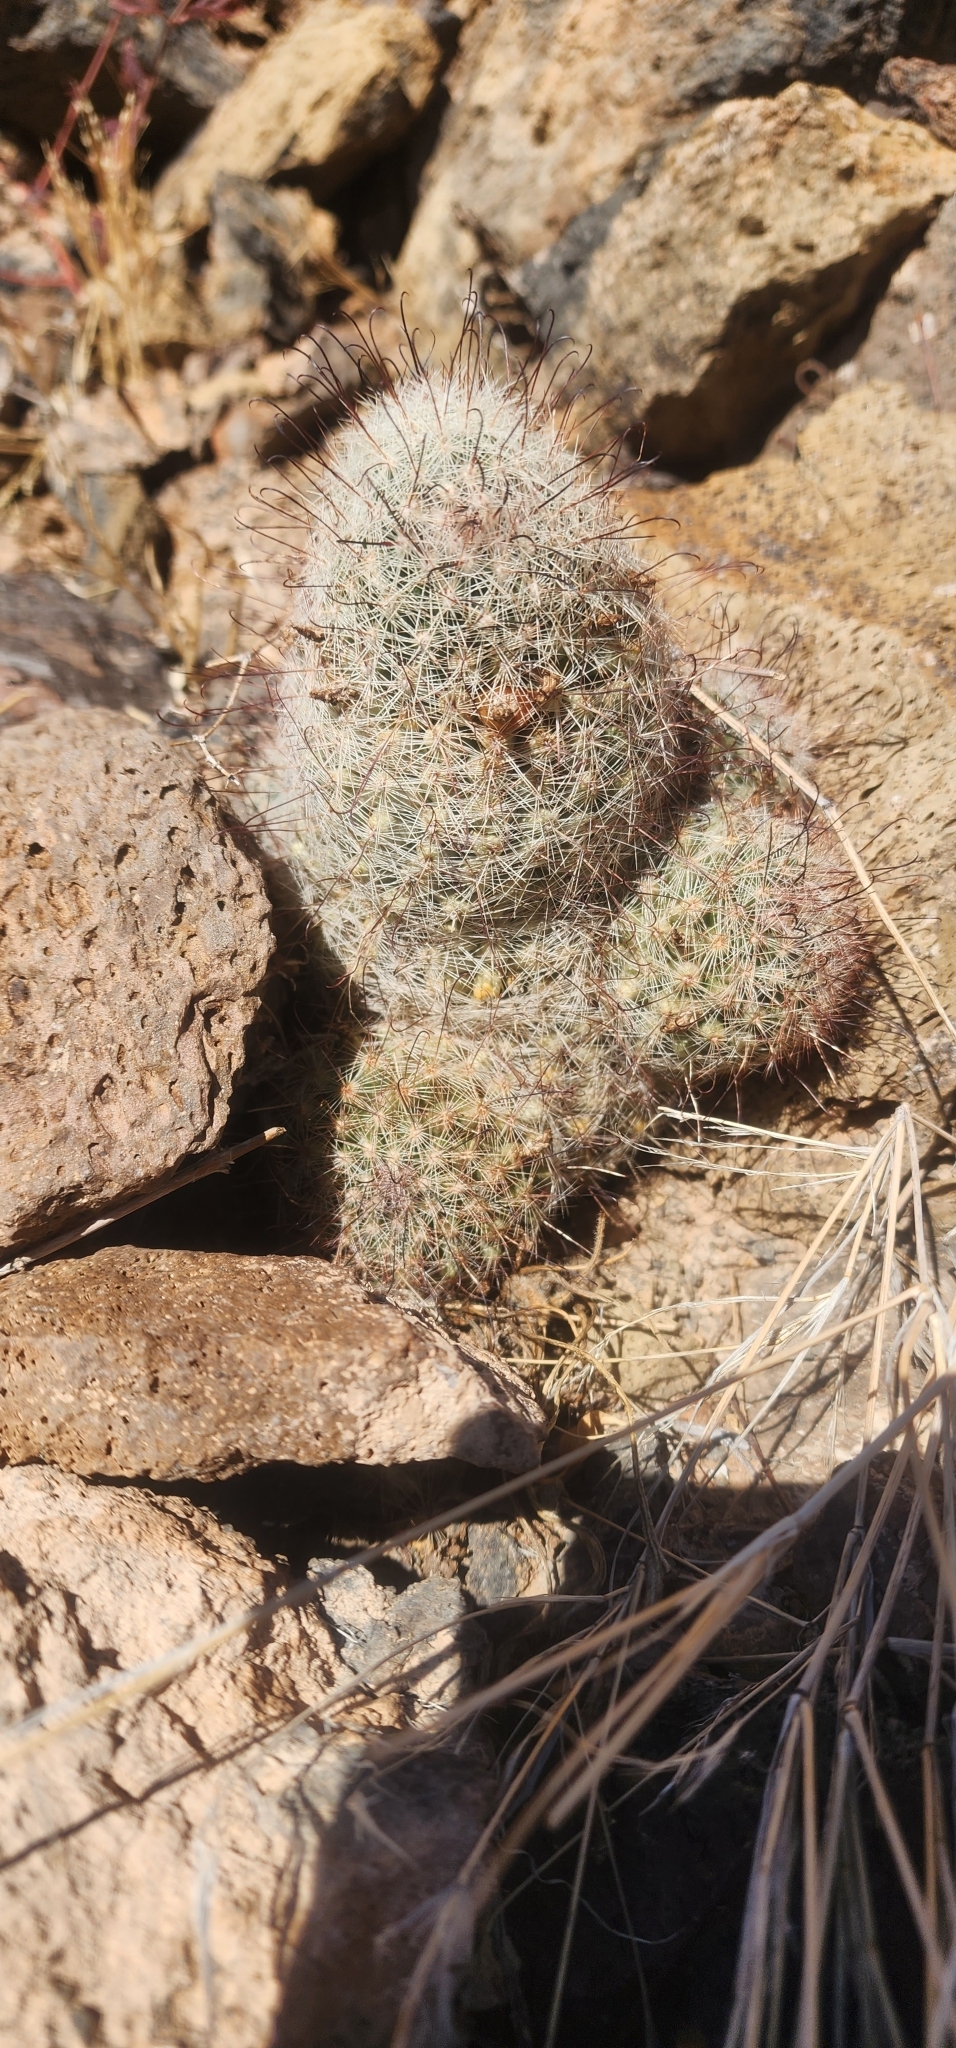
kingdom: Plantae
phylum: Tracheophyta
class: Magnoliopsida
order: Caryophyllales
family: Cactaceae
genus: Cochemiea
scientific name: Cochemiea grahamii
